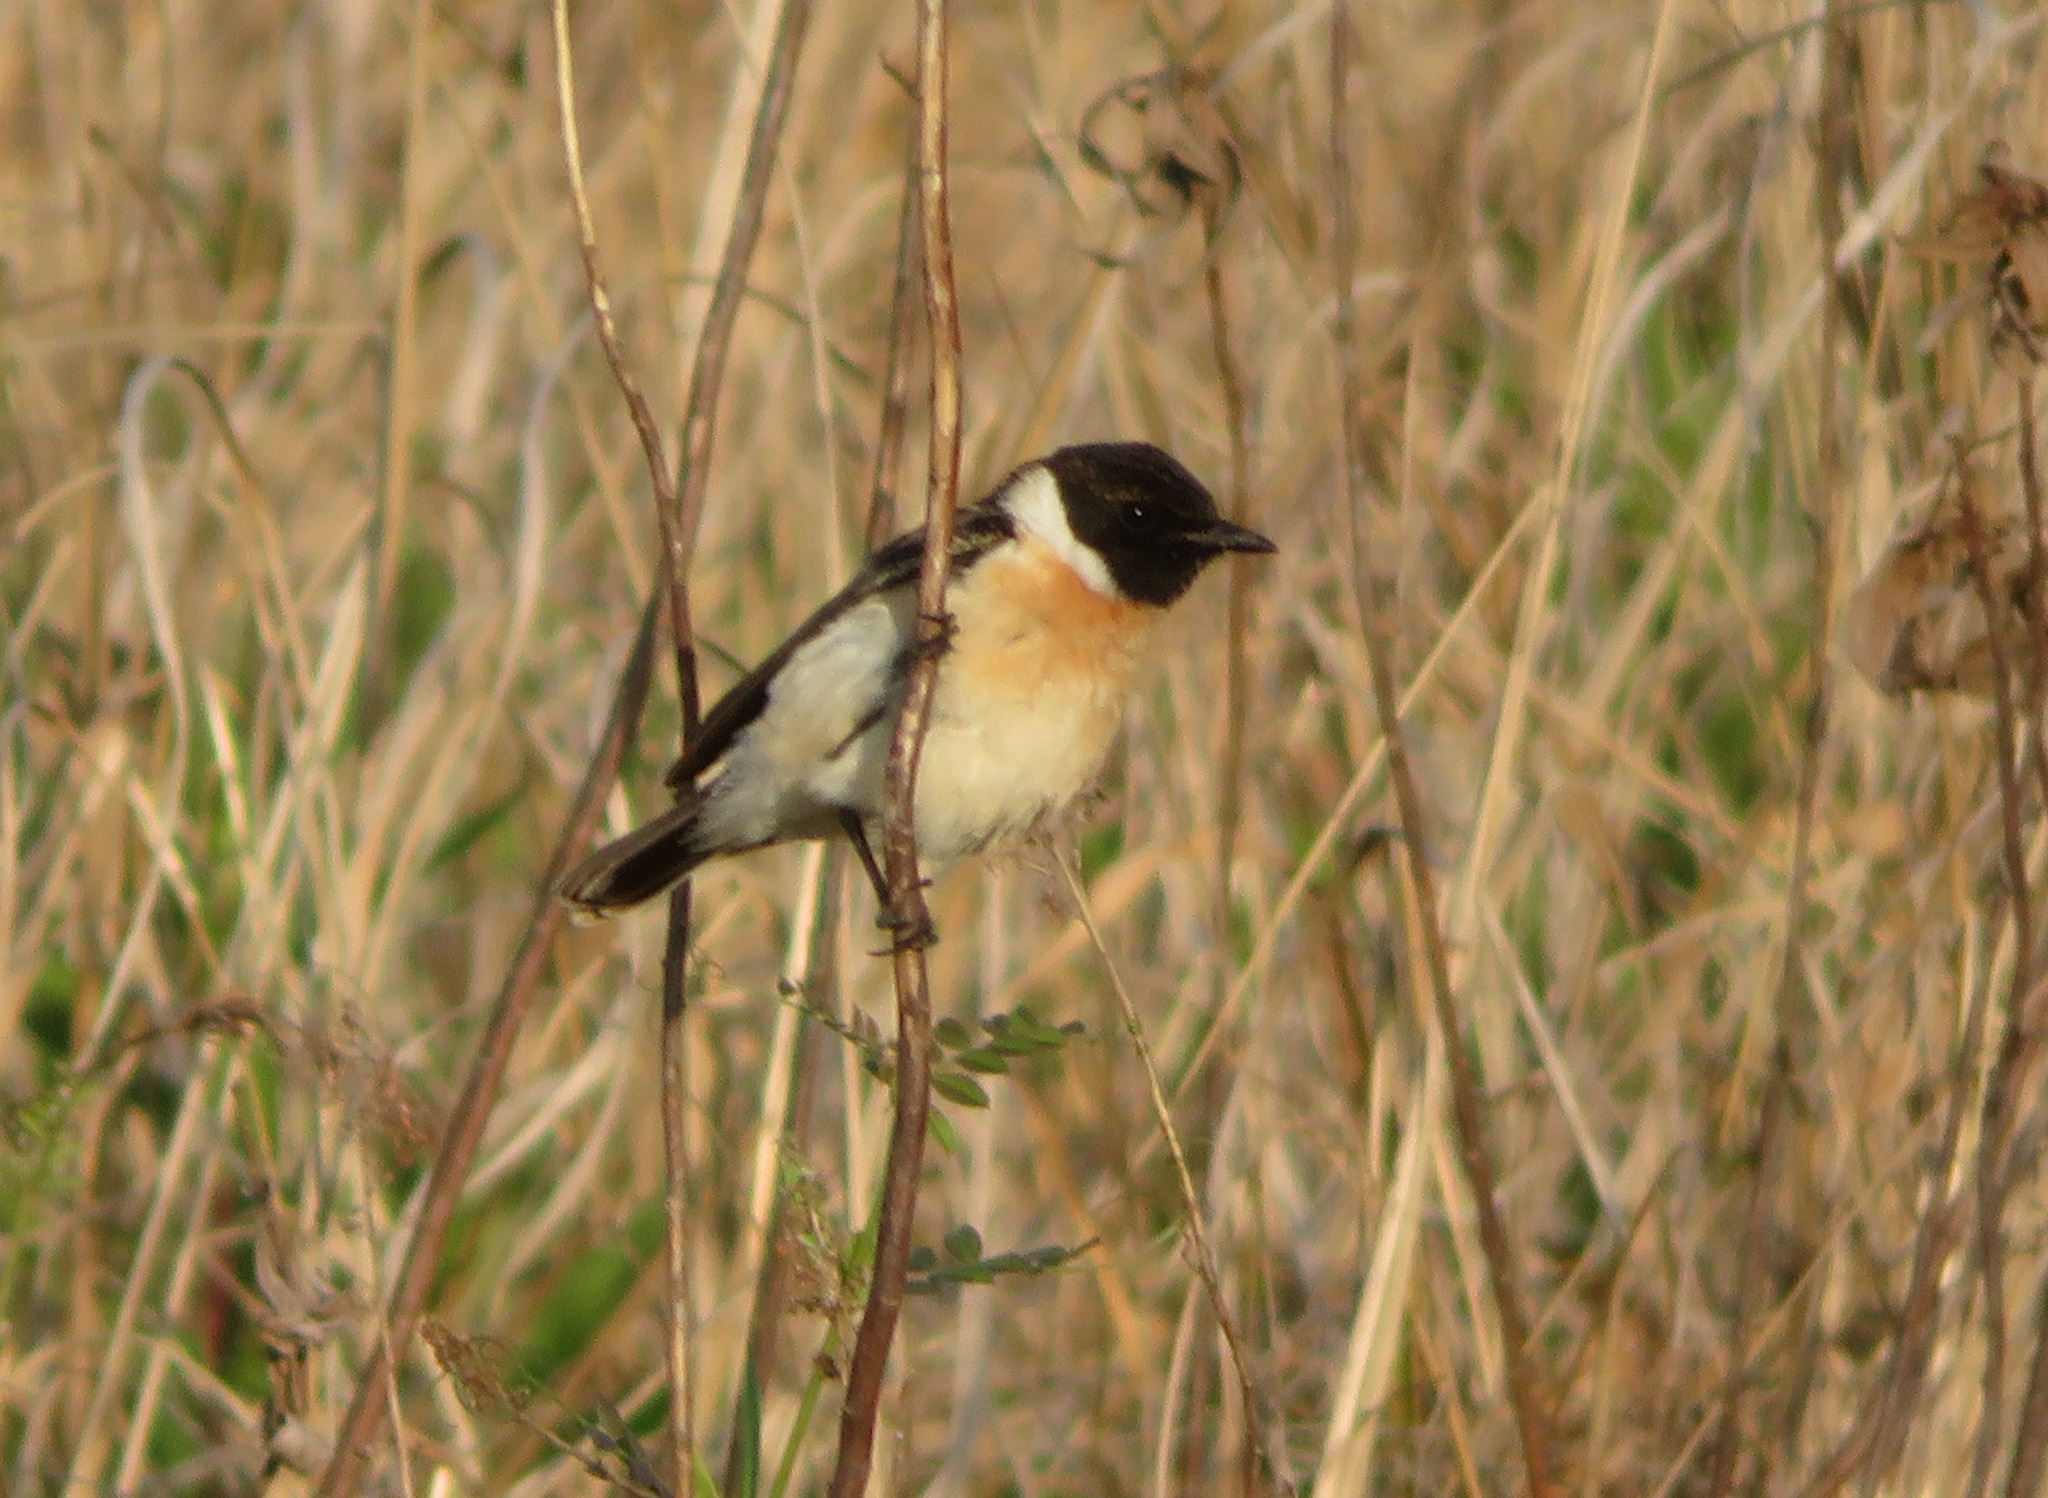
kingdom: Animalia
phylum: Chordata
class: Aves
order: Passeriformes
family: Muscicapidae
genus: Saxicola
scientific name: Saxicola stejnegeri
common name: Stejneger's stonechat
